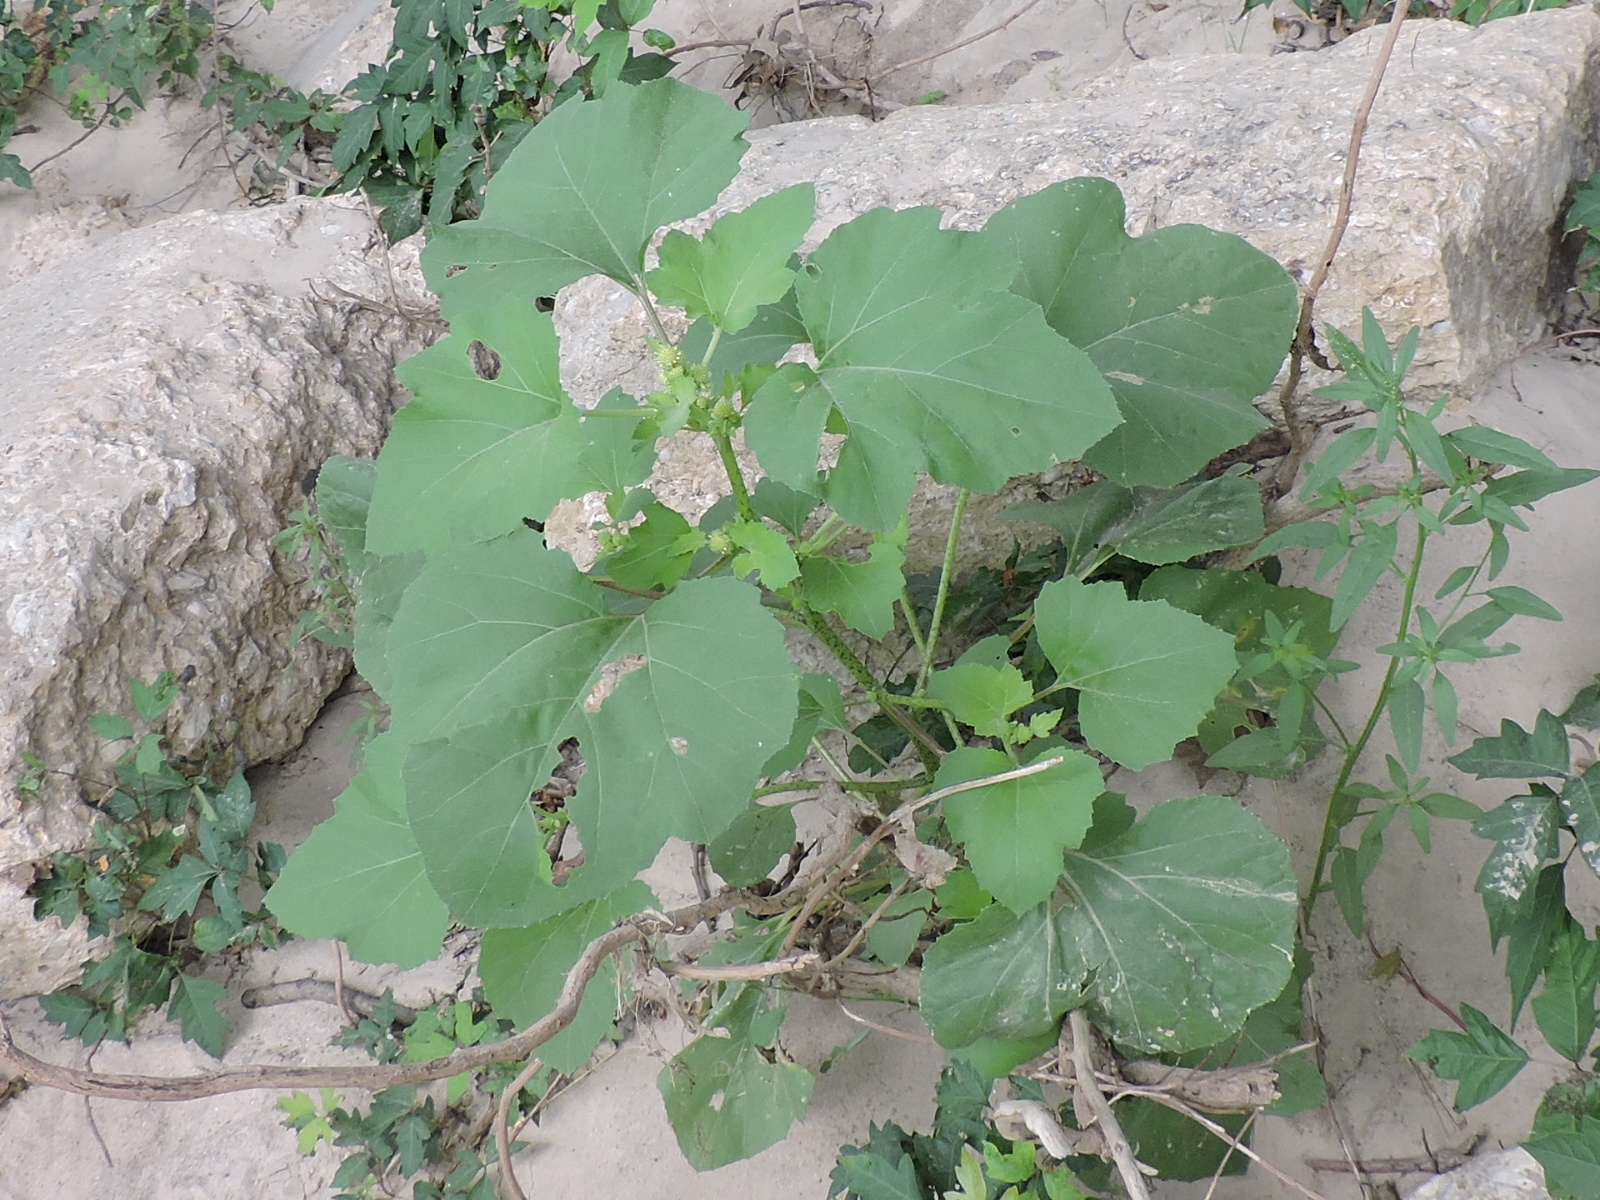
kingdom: Plantae
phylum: Tracheophyta
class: Magnoliopsida
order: Asterales
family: Asteraceae
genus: Xanthium
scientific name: Xanthium strumarium
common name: Rough cocklebur
